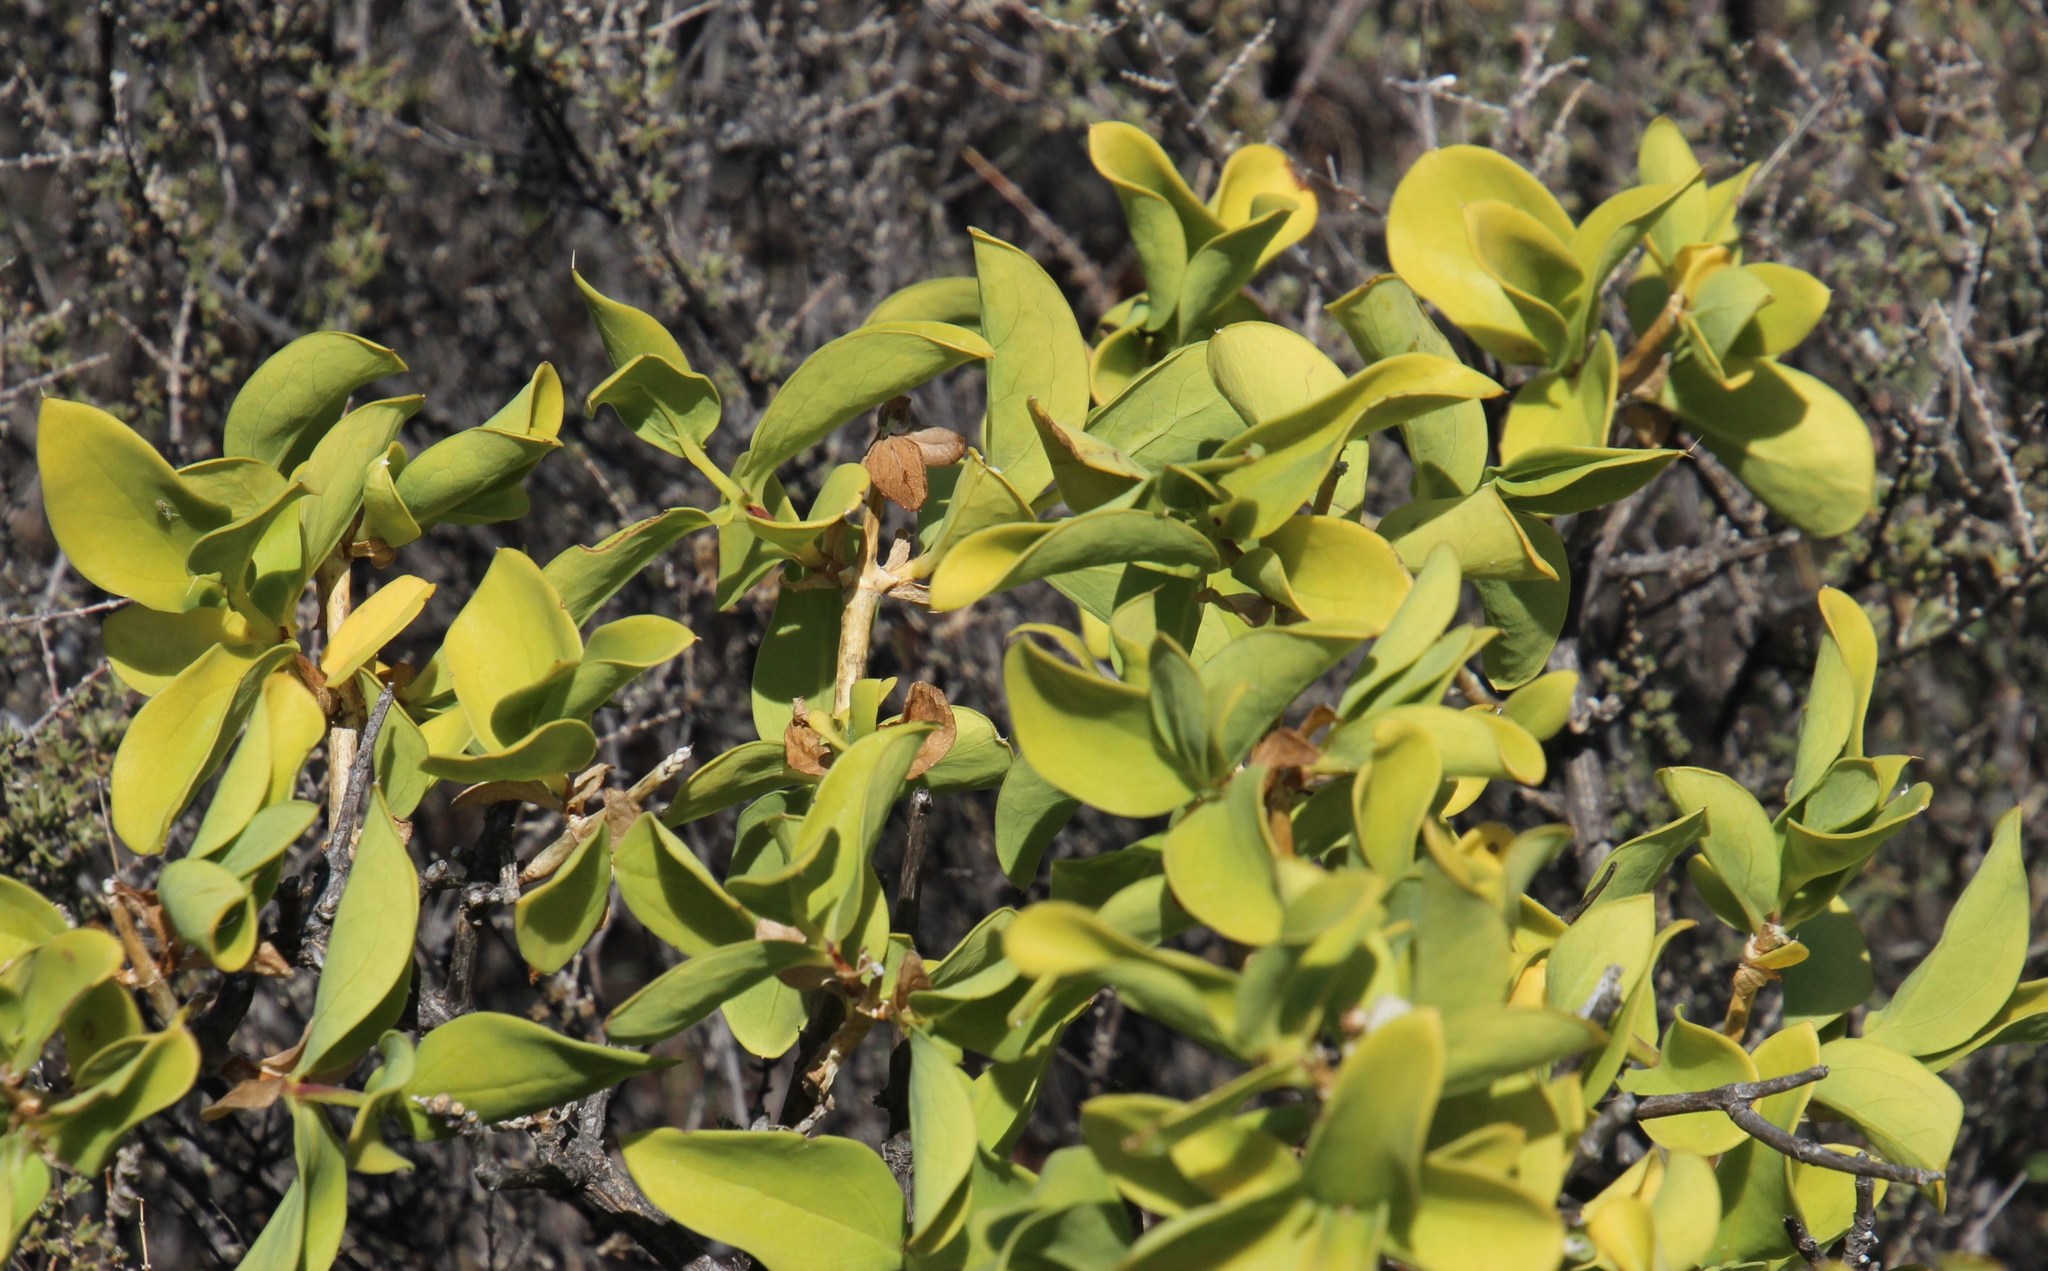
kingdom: Plantae
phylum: Tracheophyta
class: Magnoliopsida
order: Asterales
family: Asteraceae
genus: Didelta
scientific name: Didelta spinosa
